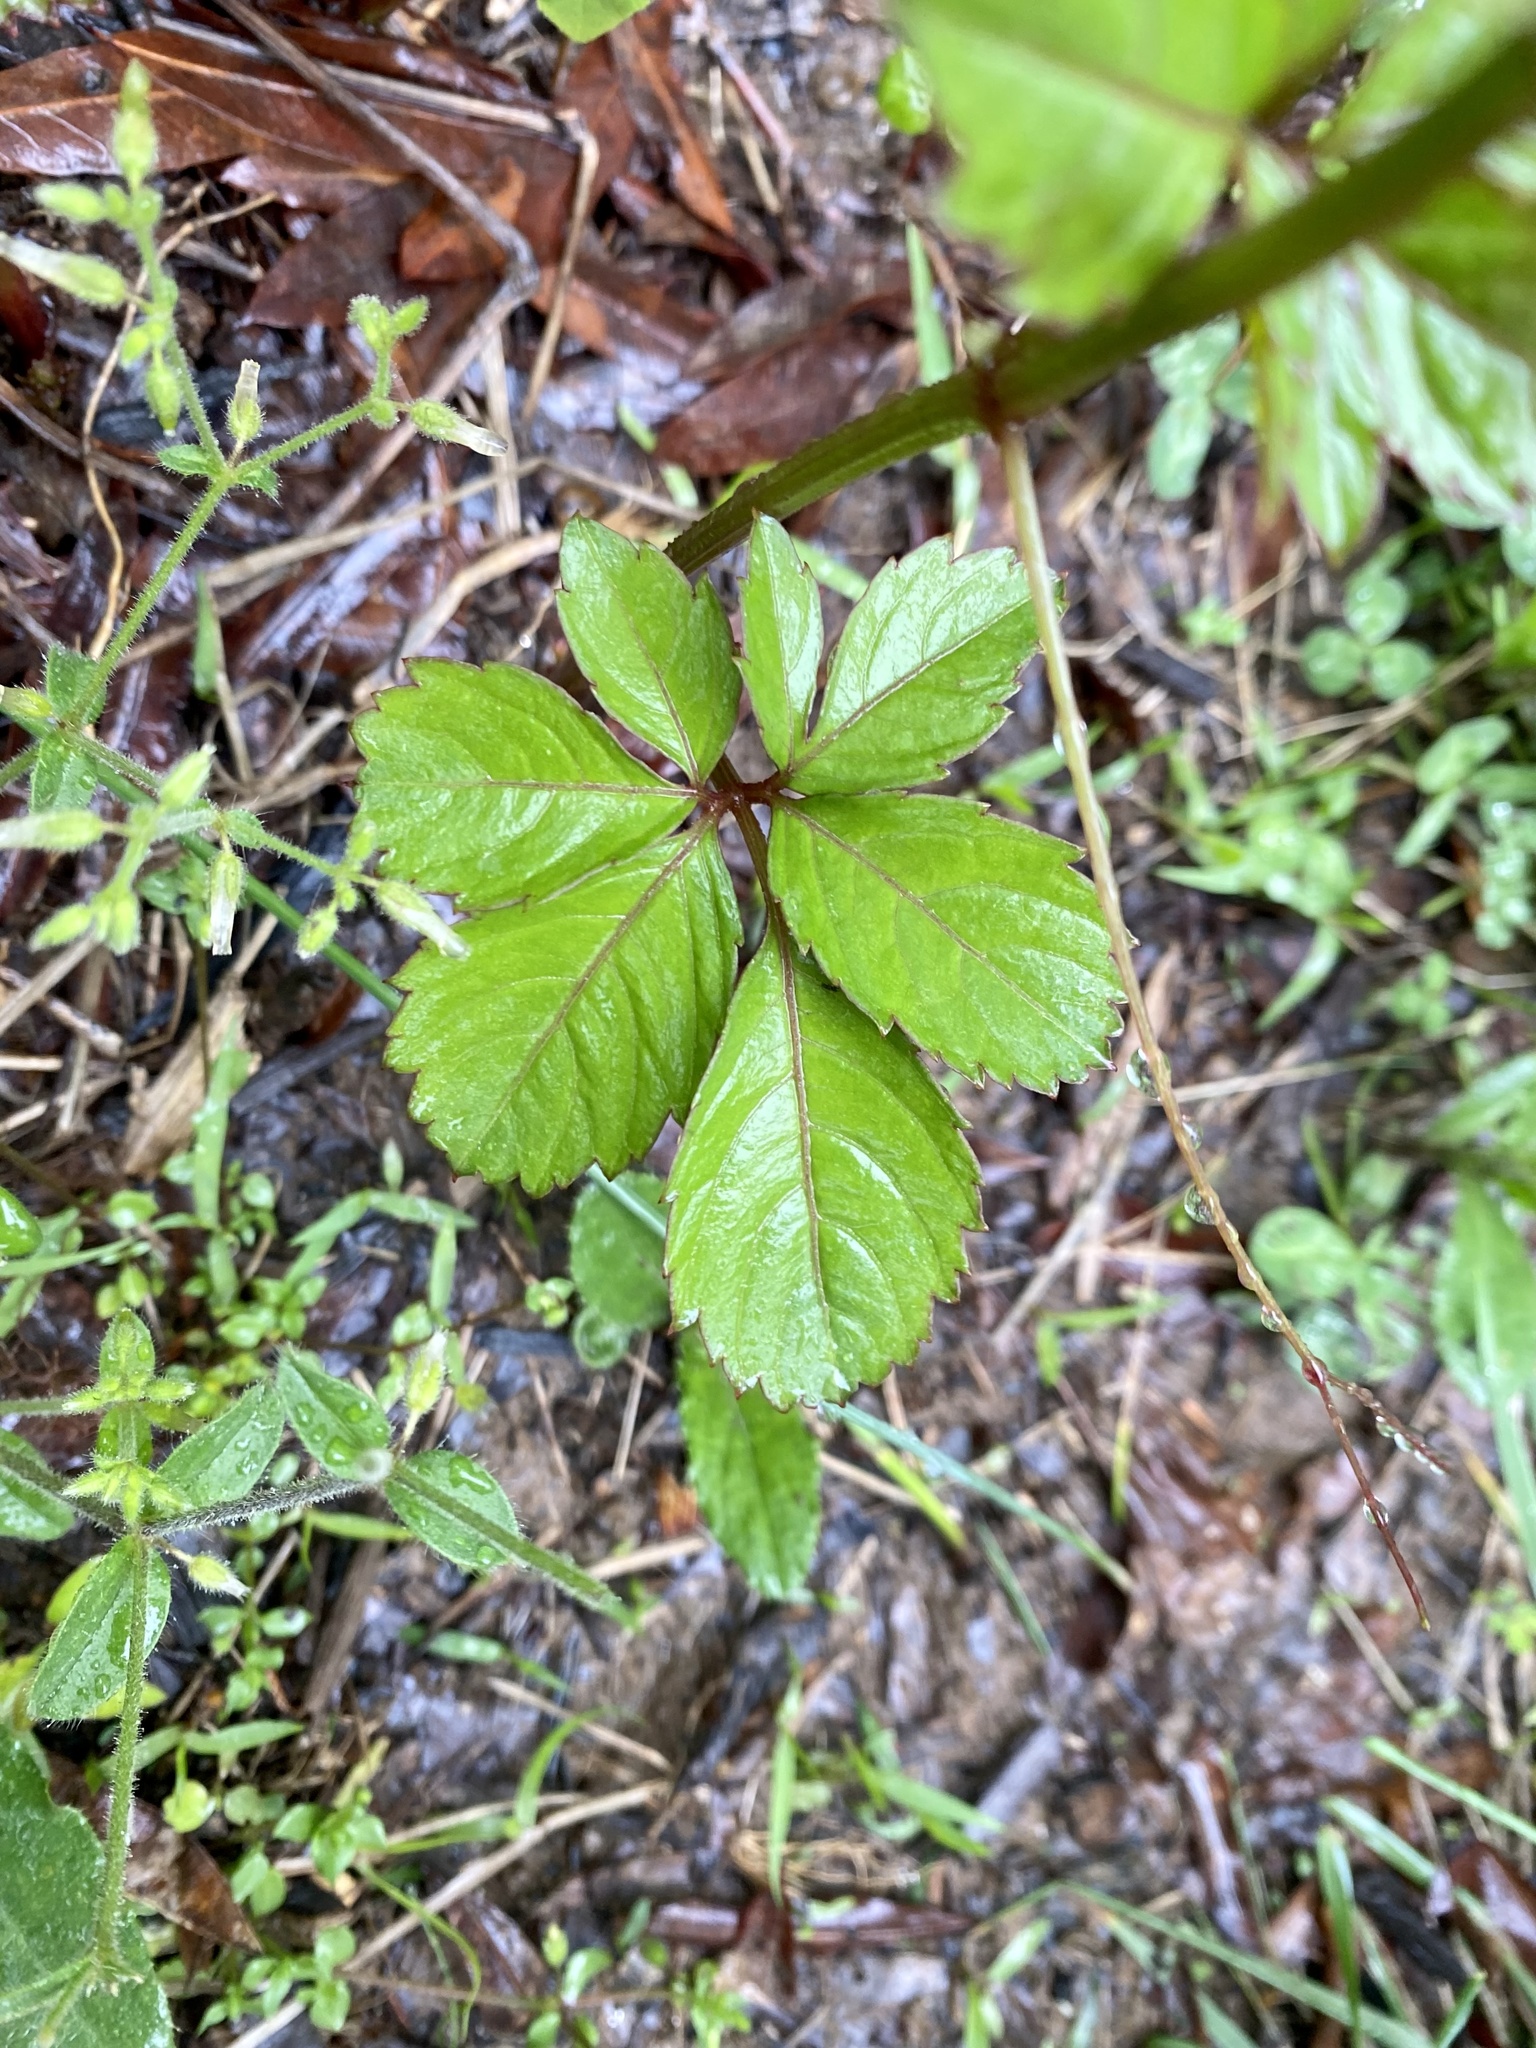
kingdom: Plantae
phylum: Tracheophyta
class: Magnoliopsida
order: Vitales
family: Vitaceae
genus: Causonis
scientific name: Causonis japonica
